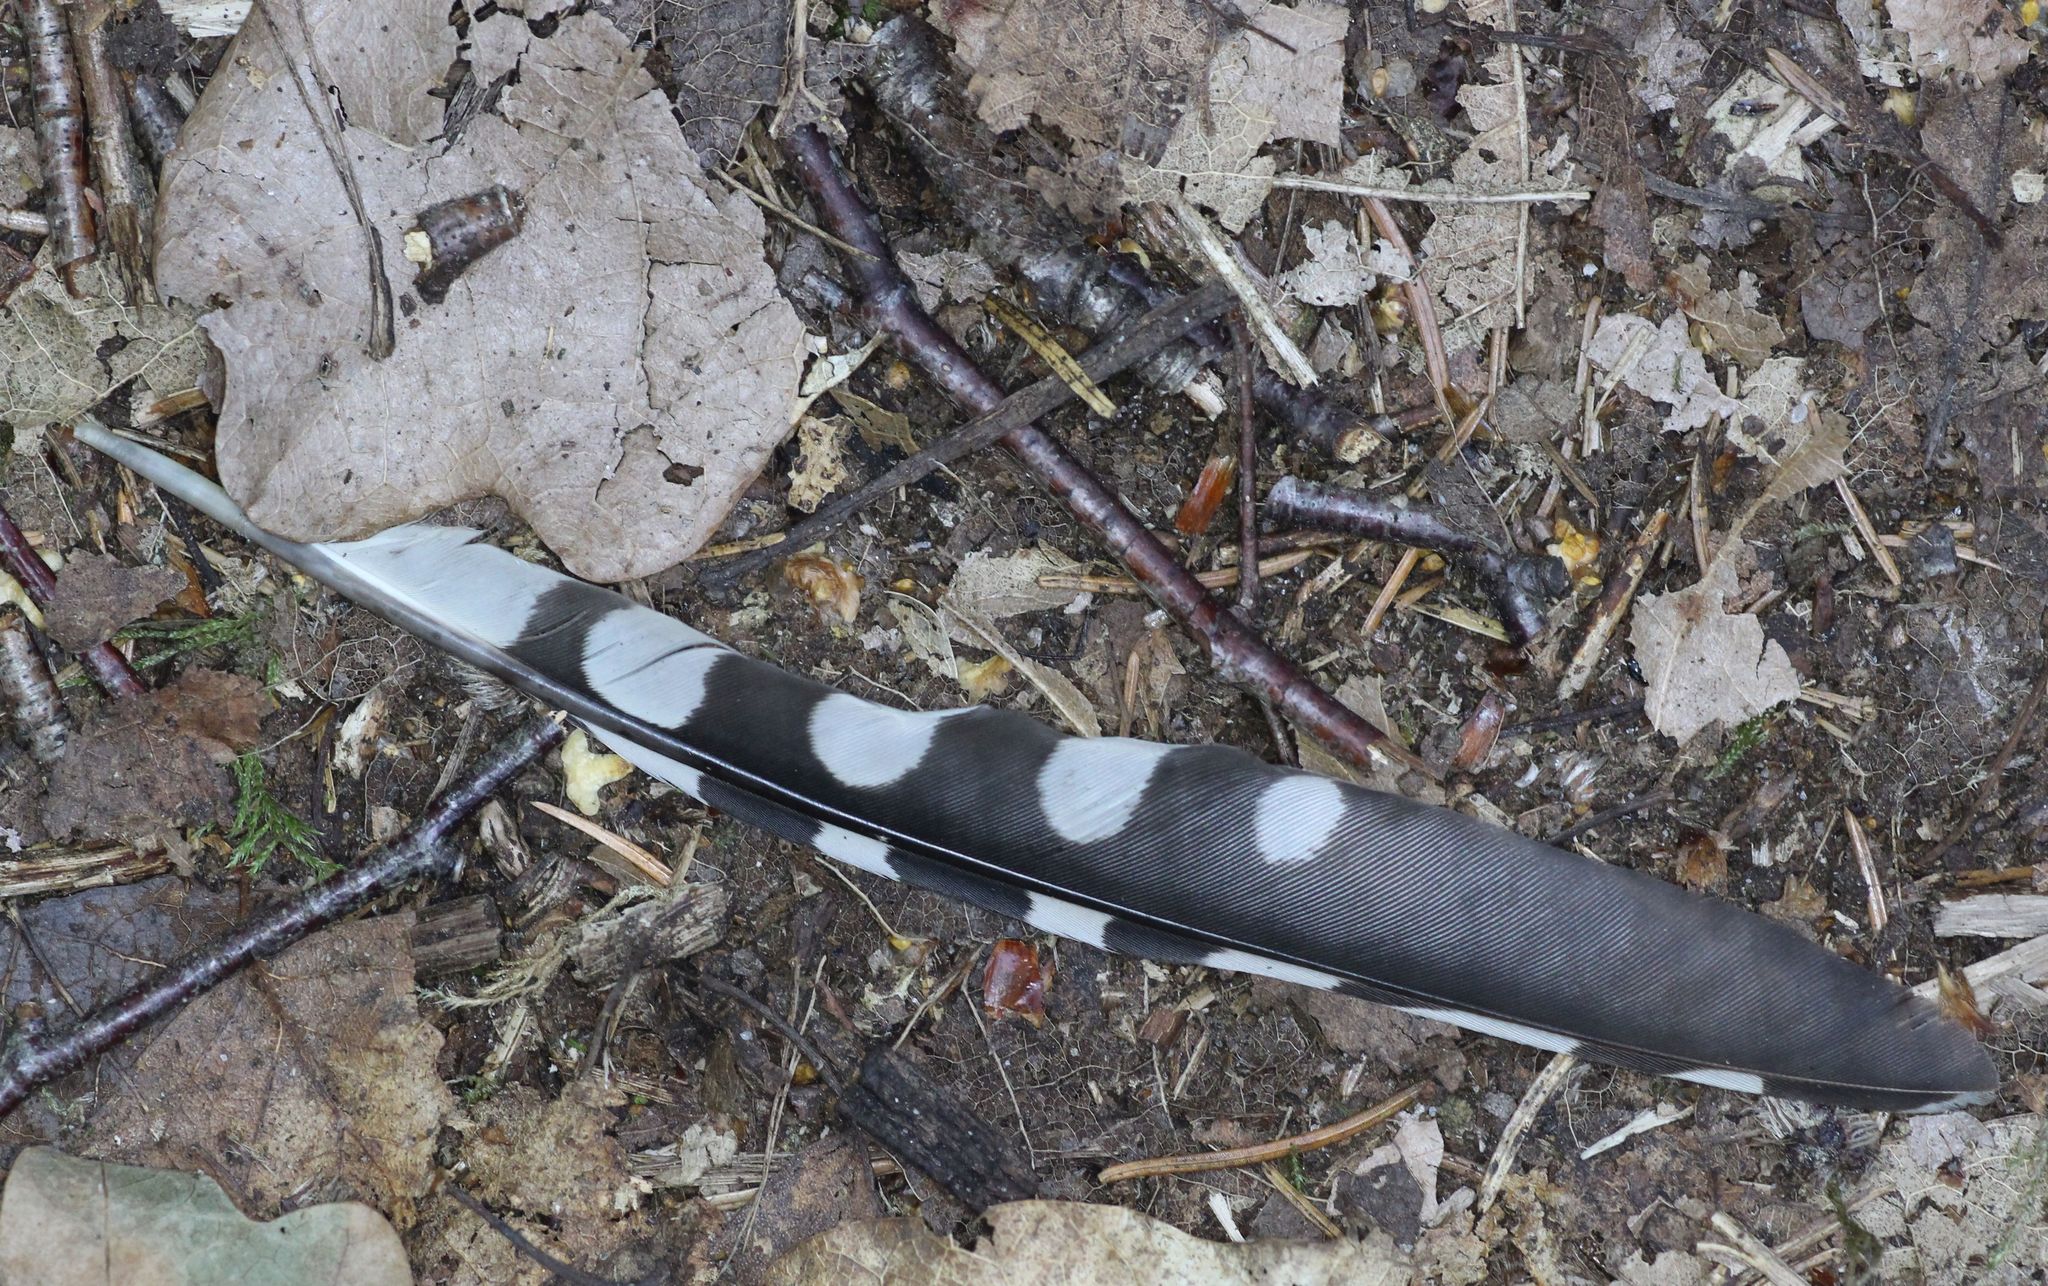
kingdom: Animalia
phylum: Chordata
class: Aves
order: Piciformes
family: Picidae
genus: Dendrocopos
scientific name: Dendrocopos major
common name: Great spotted woodpecker
